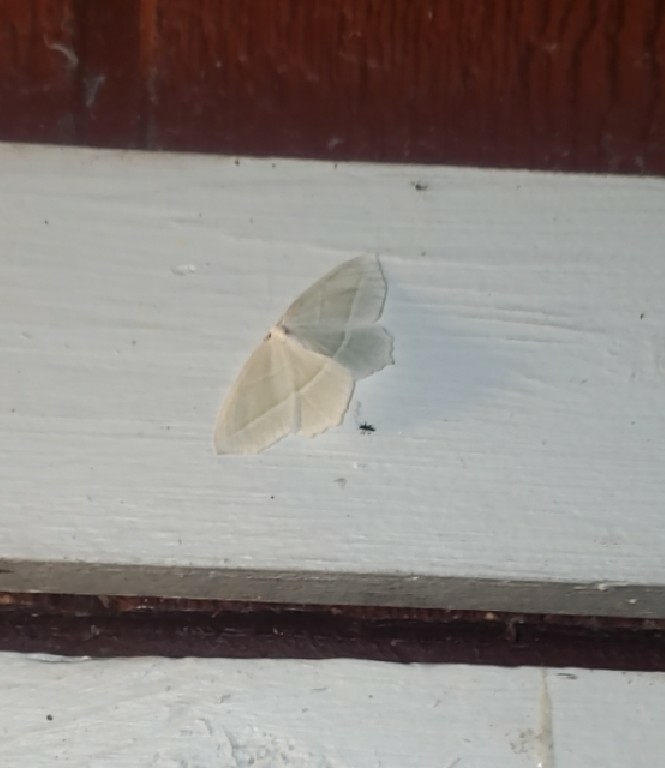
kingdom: Animalia
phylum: Arthropoda
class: Insecta
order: Lepidoptera
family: Geometridae
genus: Campaea
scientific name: Campaea perlata
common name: Fringed looper
